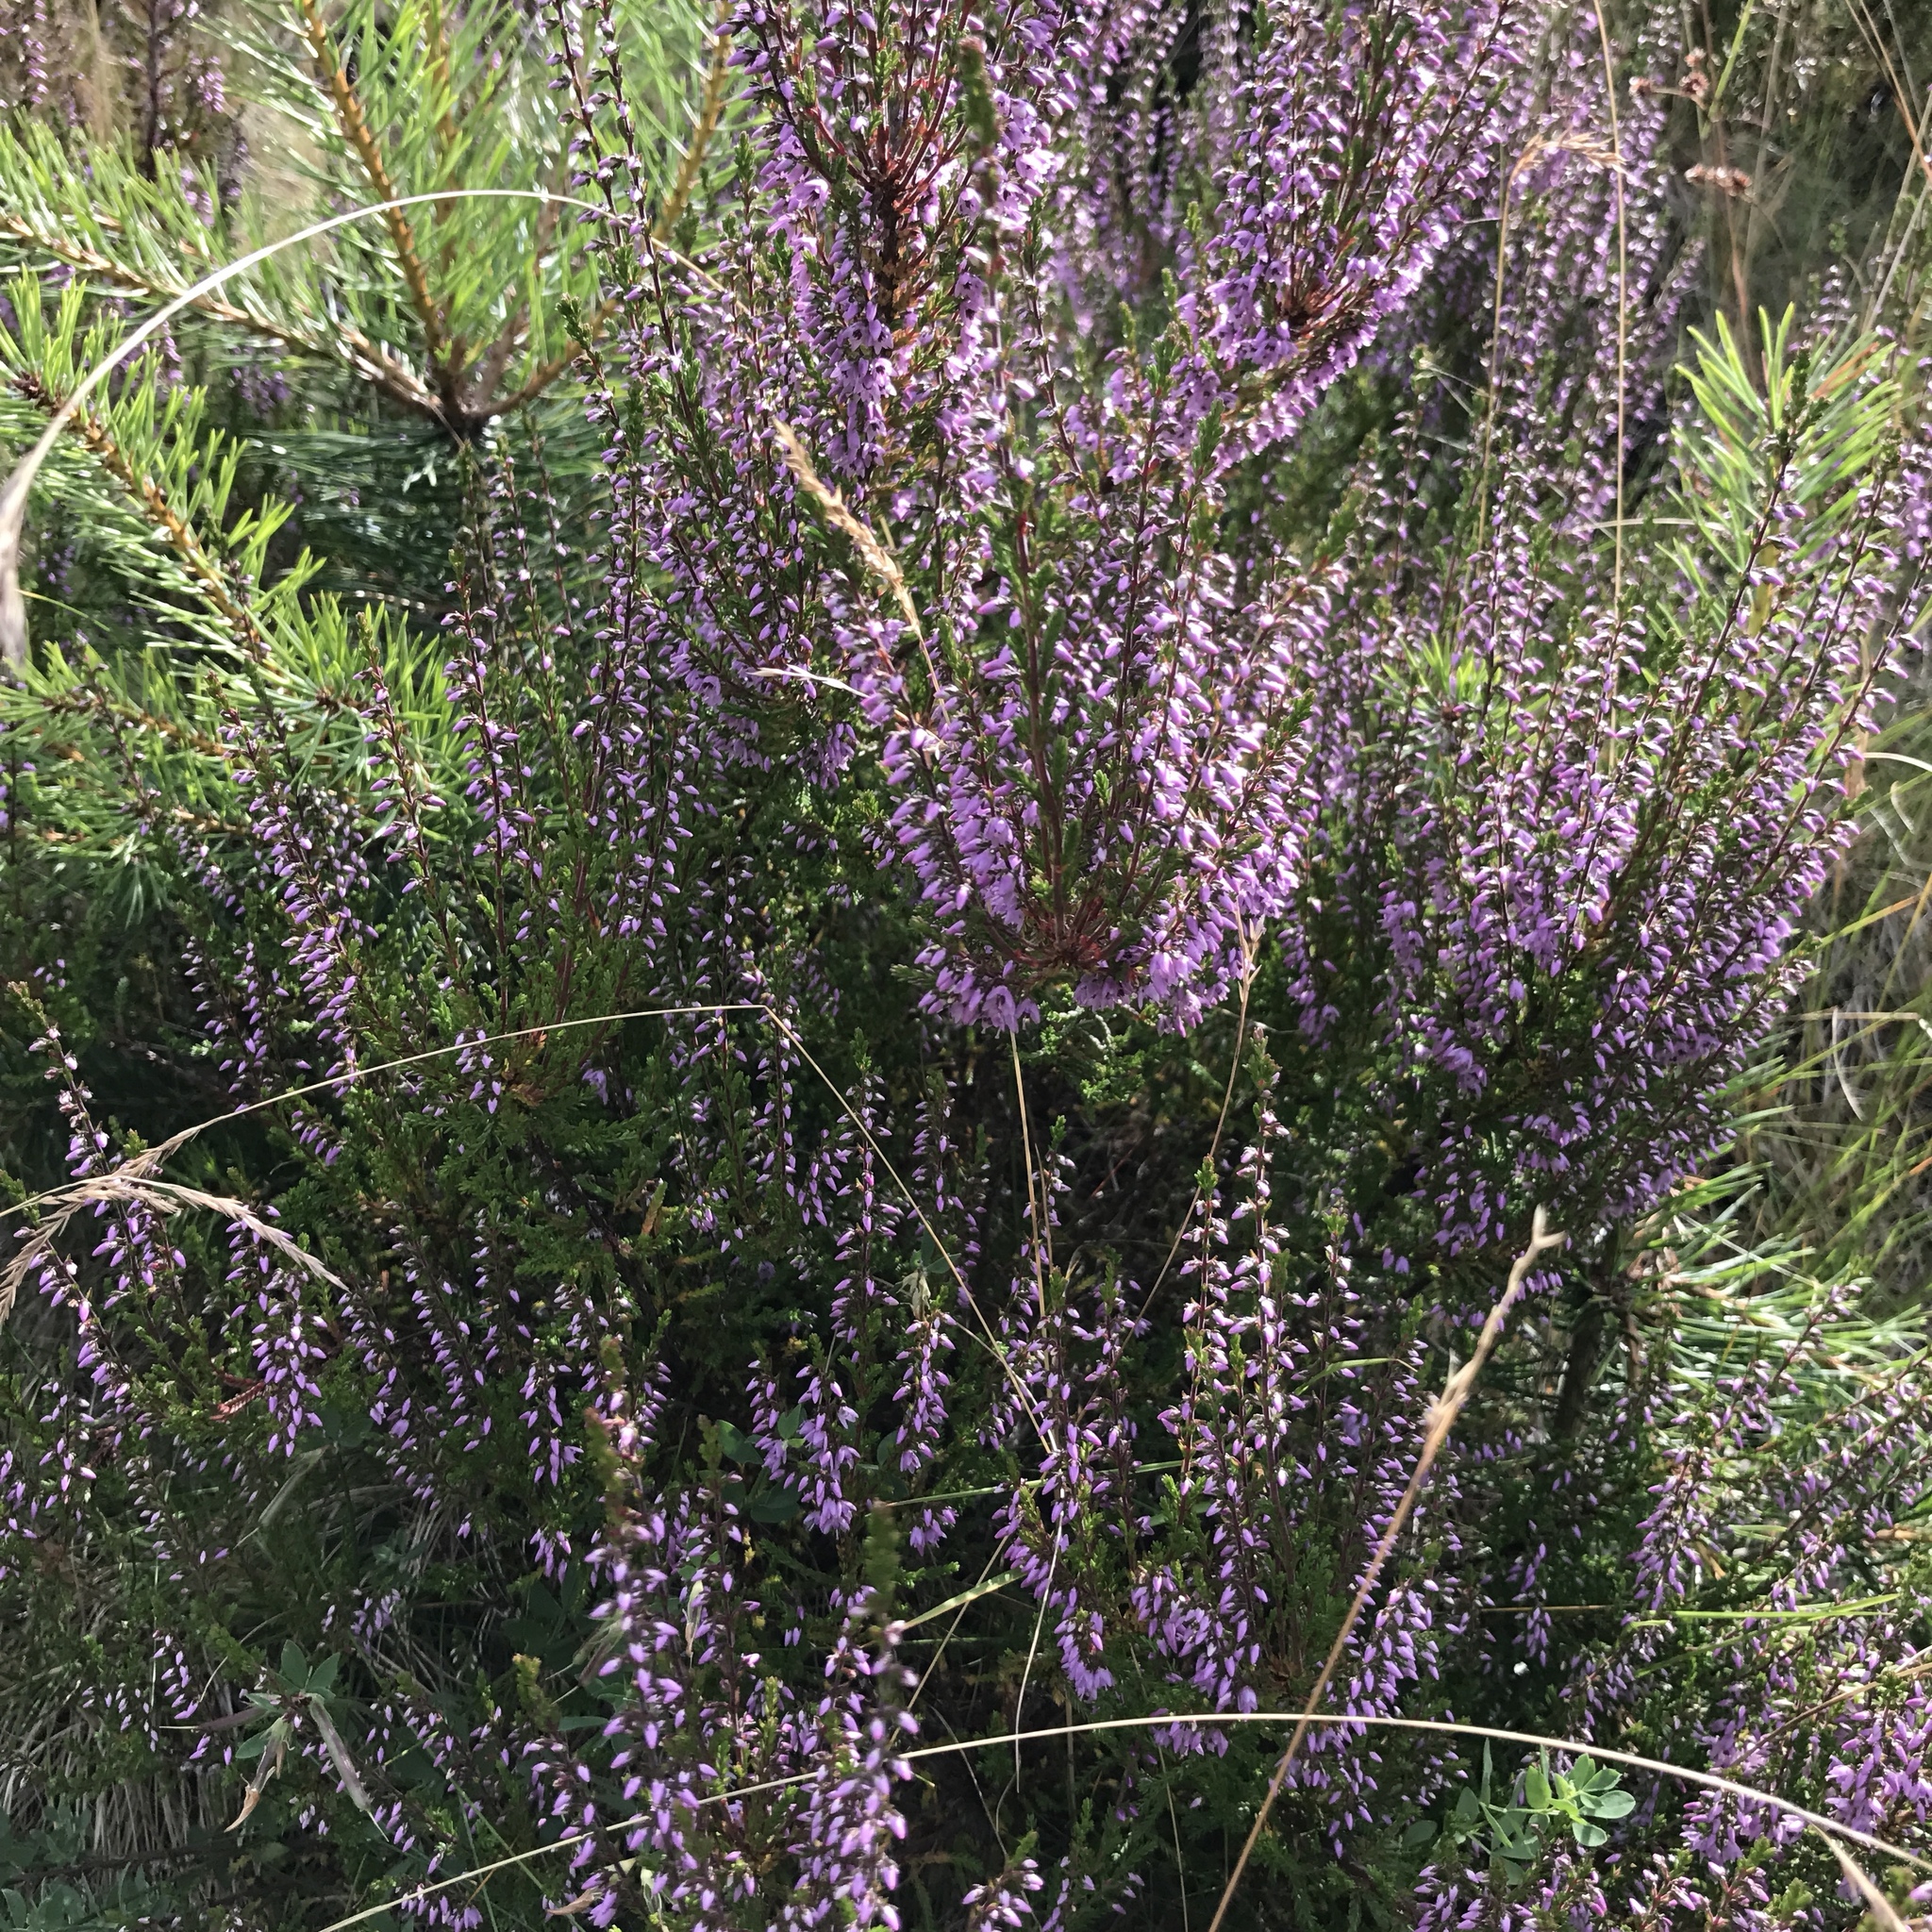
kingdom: Plantae
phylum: Tracheophyta
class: Magnoliopsida
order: Ericales
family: Ericaceae
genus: Calluna
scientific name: Calluna vulgaris
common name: Heather
